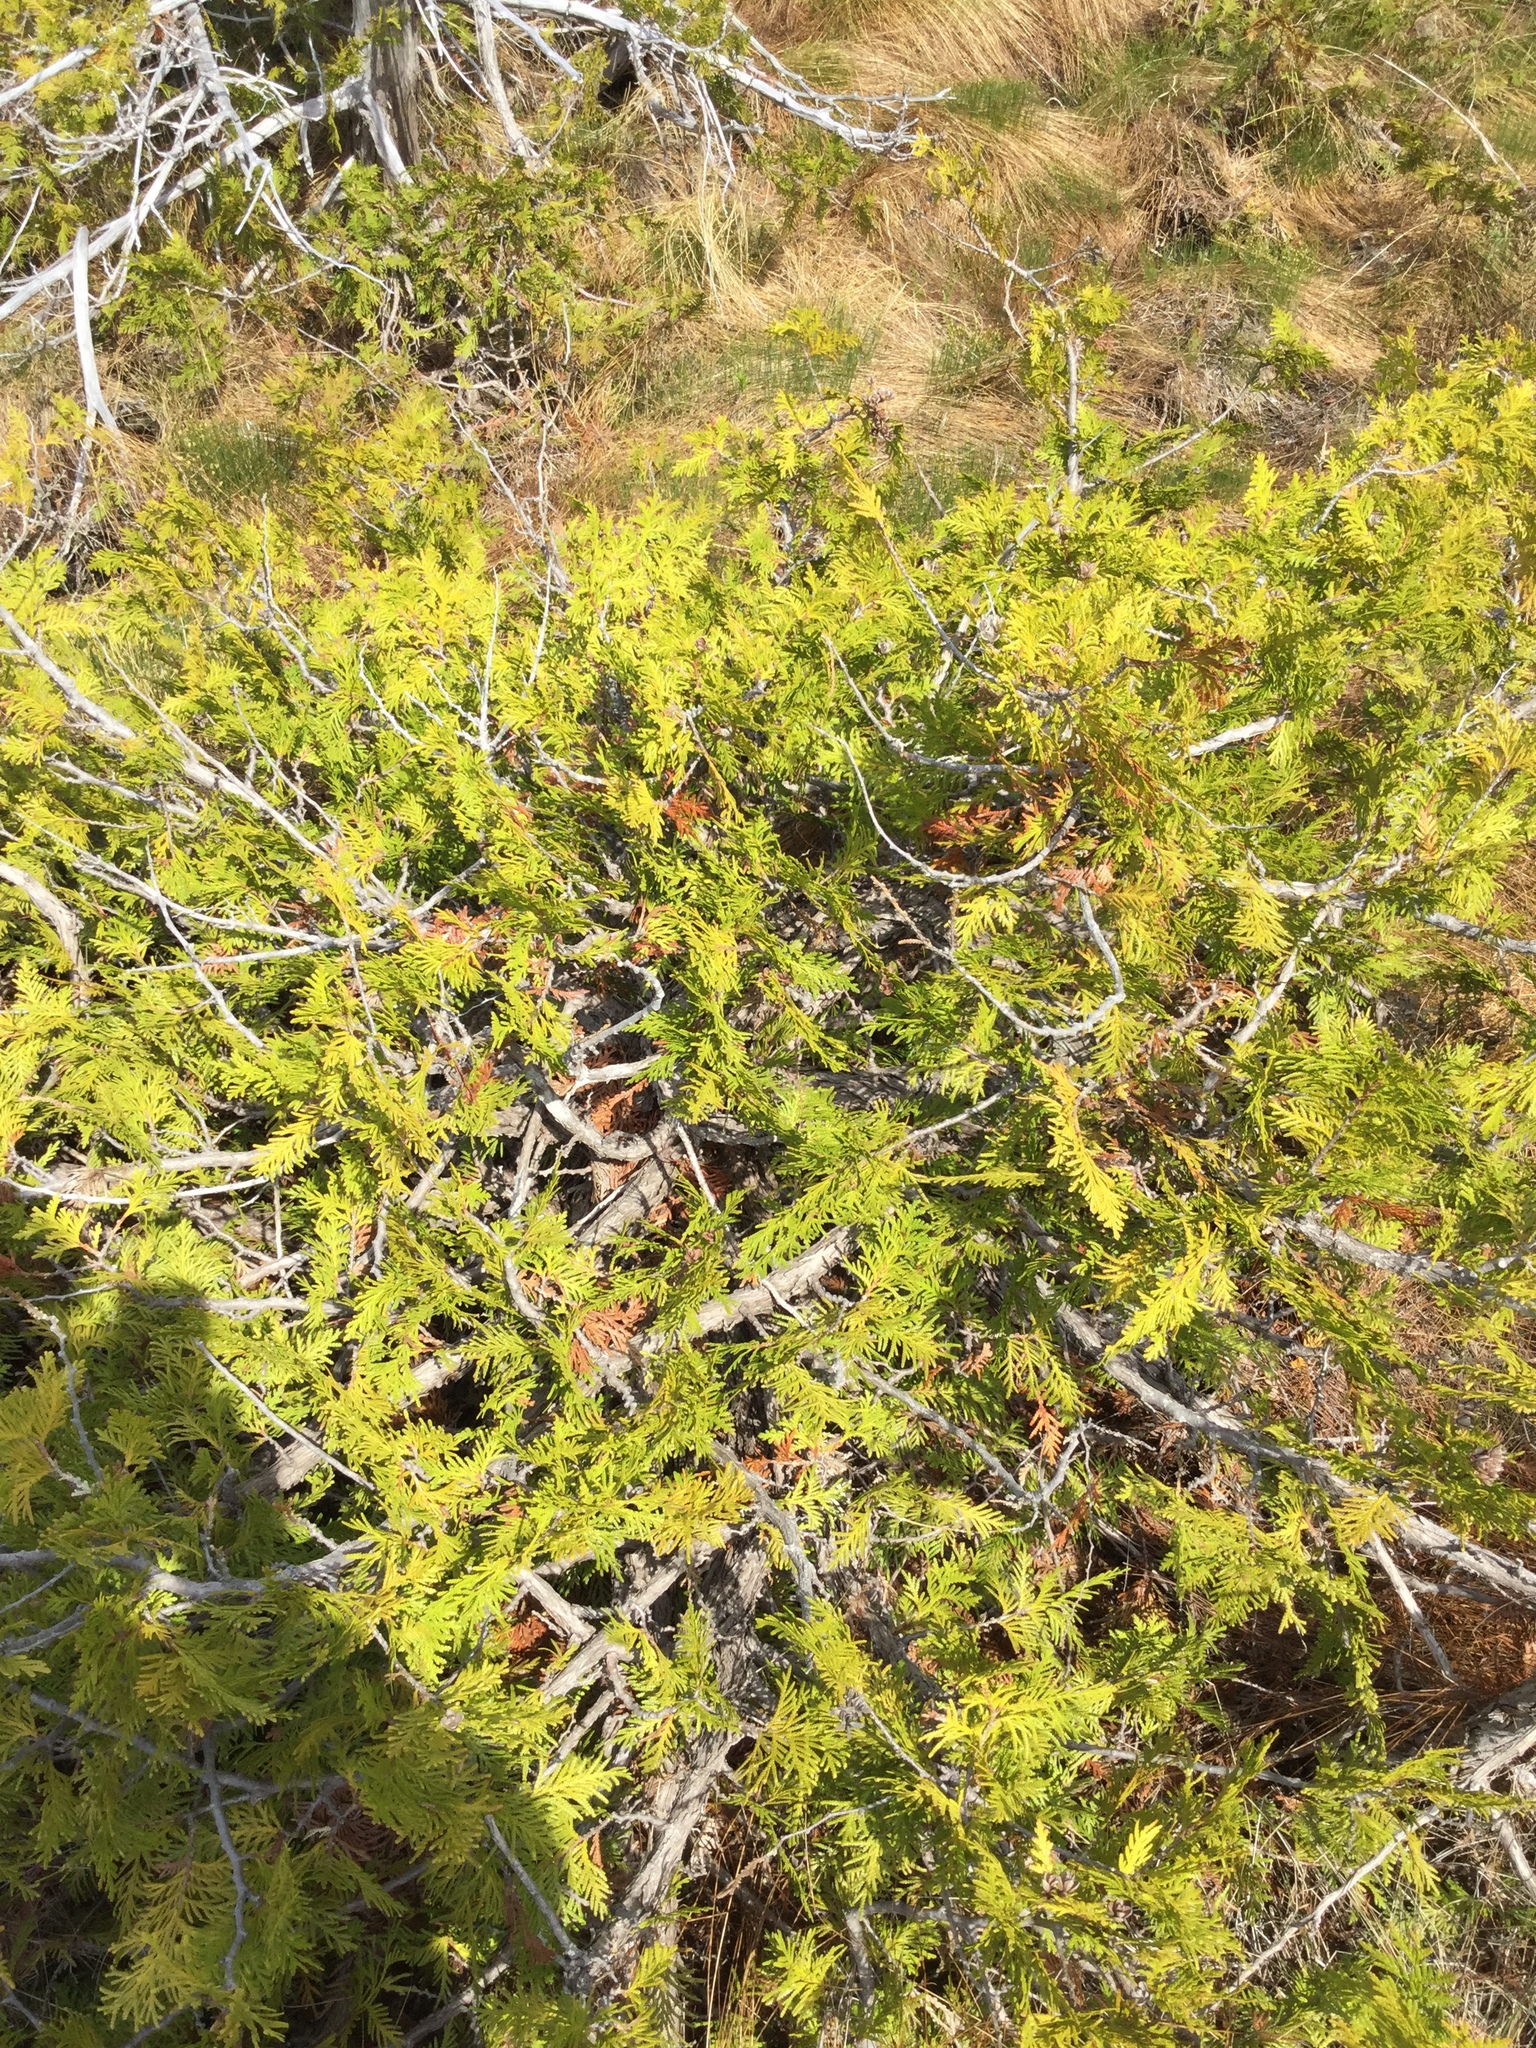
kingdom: Plantae
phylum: Tracheophyta
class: Pinopsida
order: Pinales
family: Cupressaceae
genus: Thuja
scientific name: Thuja occidentalis
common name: Northern white-cedar
